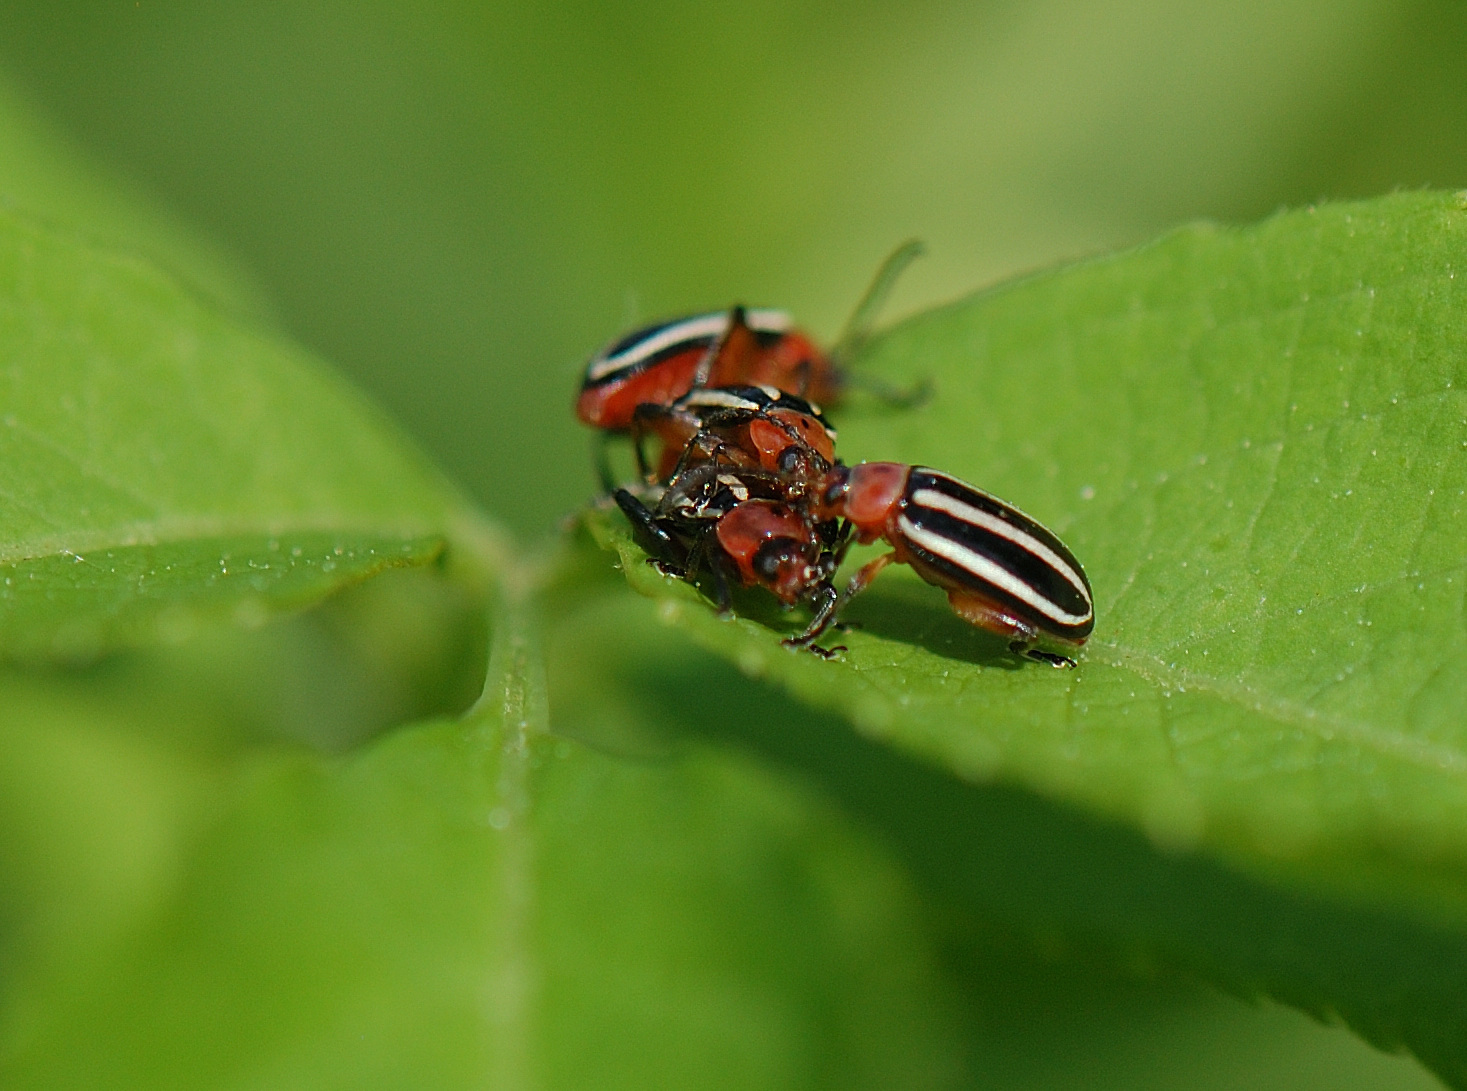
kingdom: Animalia
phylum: Arthropoda
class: Insecta
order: Coleoptera
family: Chrysomelidae
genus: Disonycha
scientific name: Disonycha glabrata
